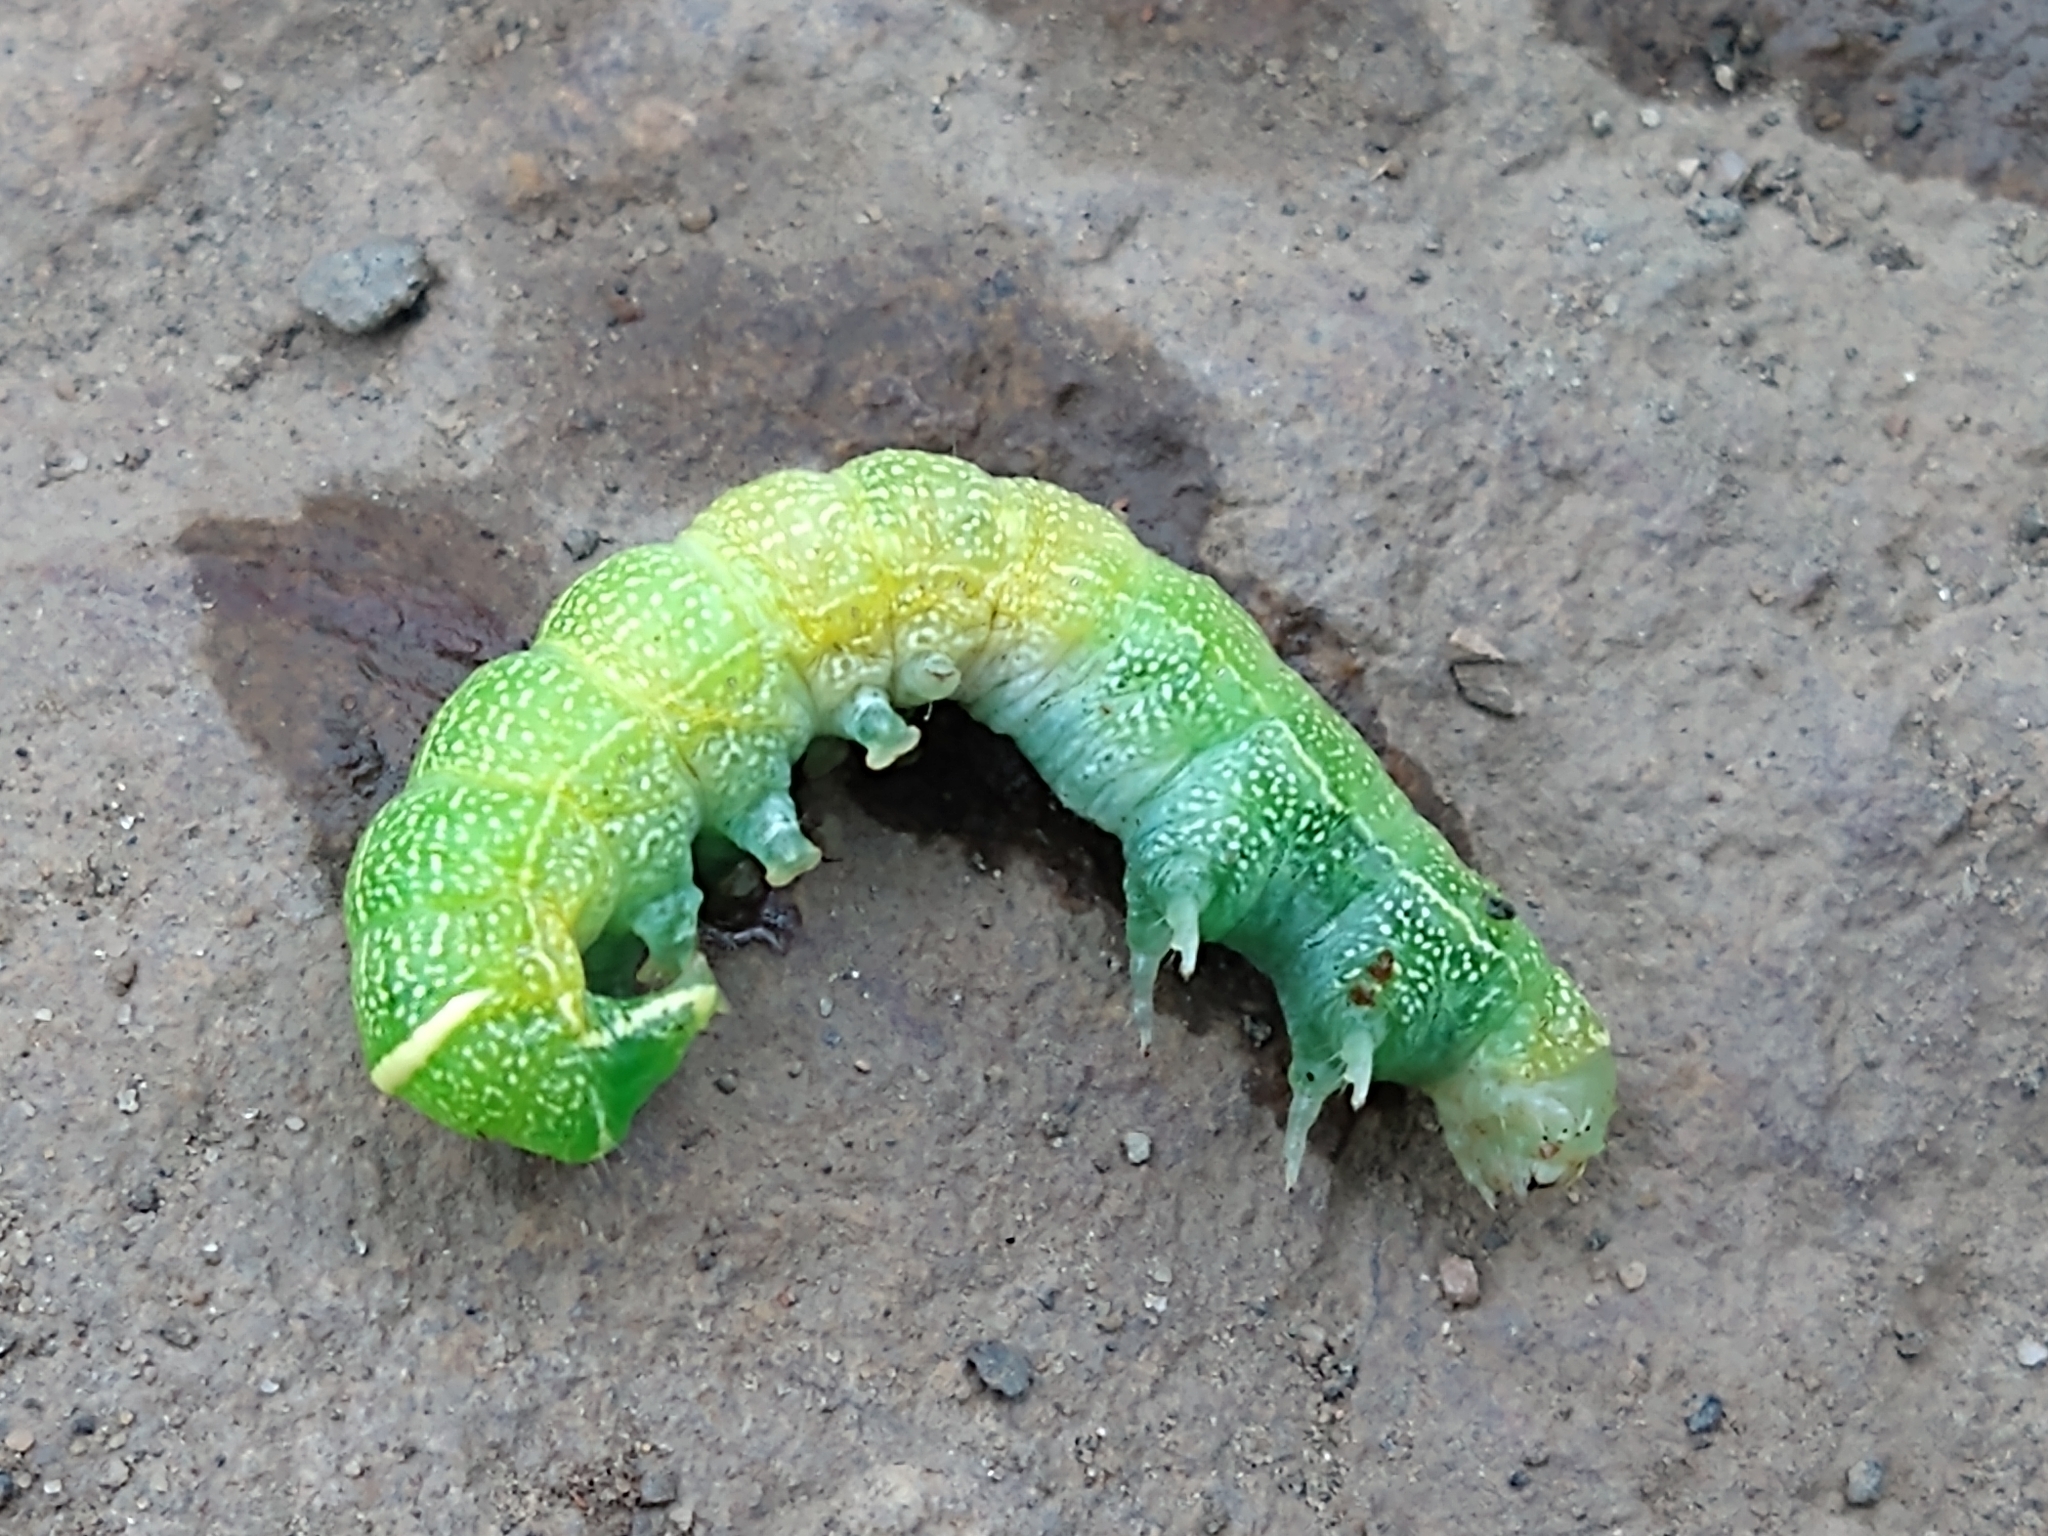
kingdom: Animalia
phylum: Arthropoda
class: Insecta
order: Lepidoptera
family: Noctuidae
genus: Orthosia
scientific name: Orthosia cerasi
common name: Common quaker
